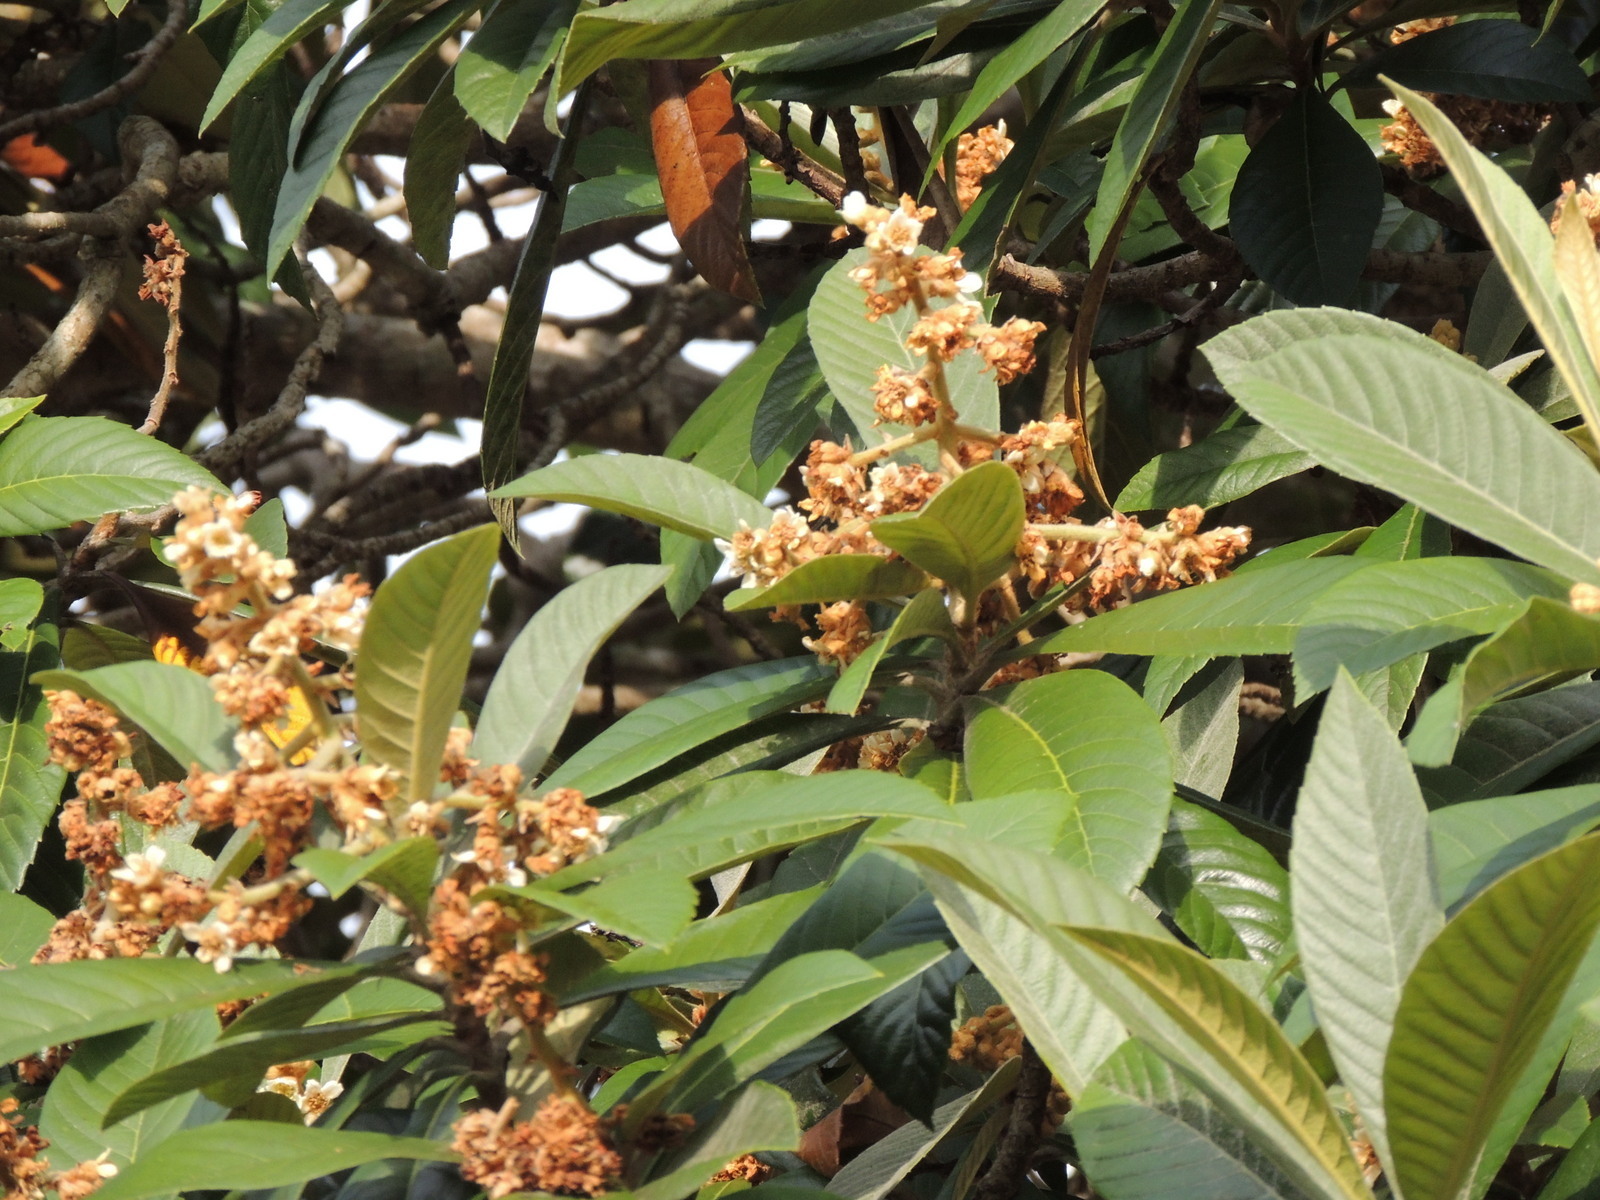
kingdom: Plantae
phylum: Tracheophyta
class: Magnoliopsida
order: Rosales
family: Rosaceae
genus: Rhaphiolepis
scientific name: Rhaphiolepis bibas
